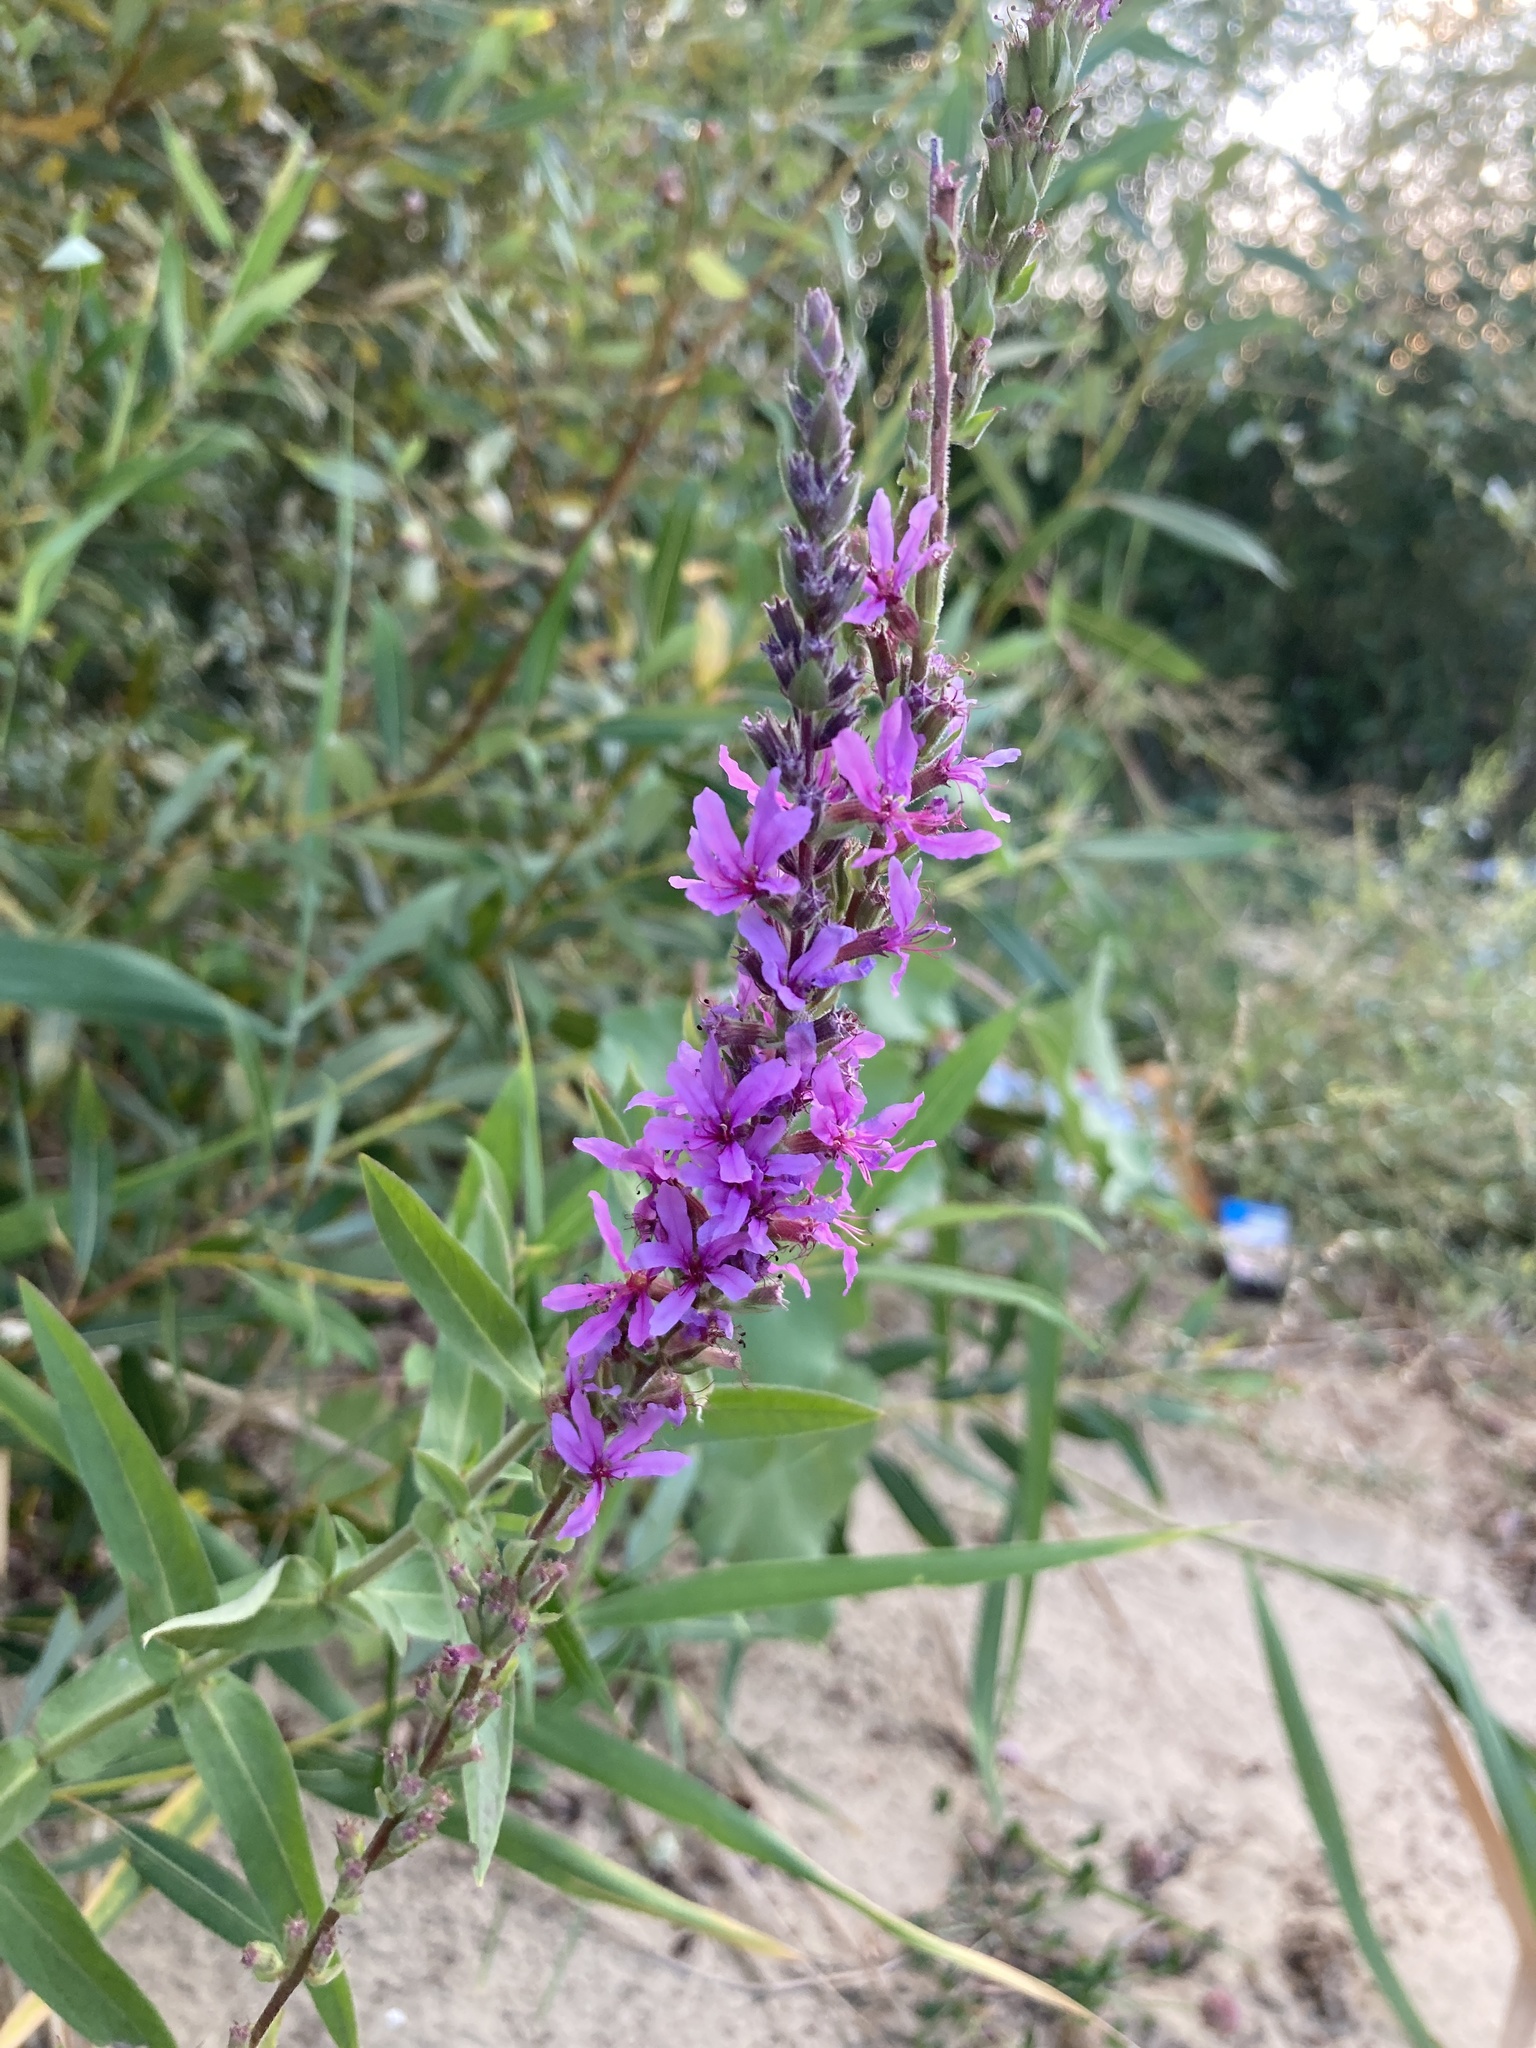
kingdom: Plantae
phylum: Tracheophyta
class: Magnoliopsida
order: Myrtales
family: Lythraceae
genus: Lythrum
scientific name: Lythrum salicaria
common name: Purple loosestrife
